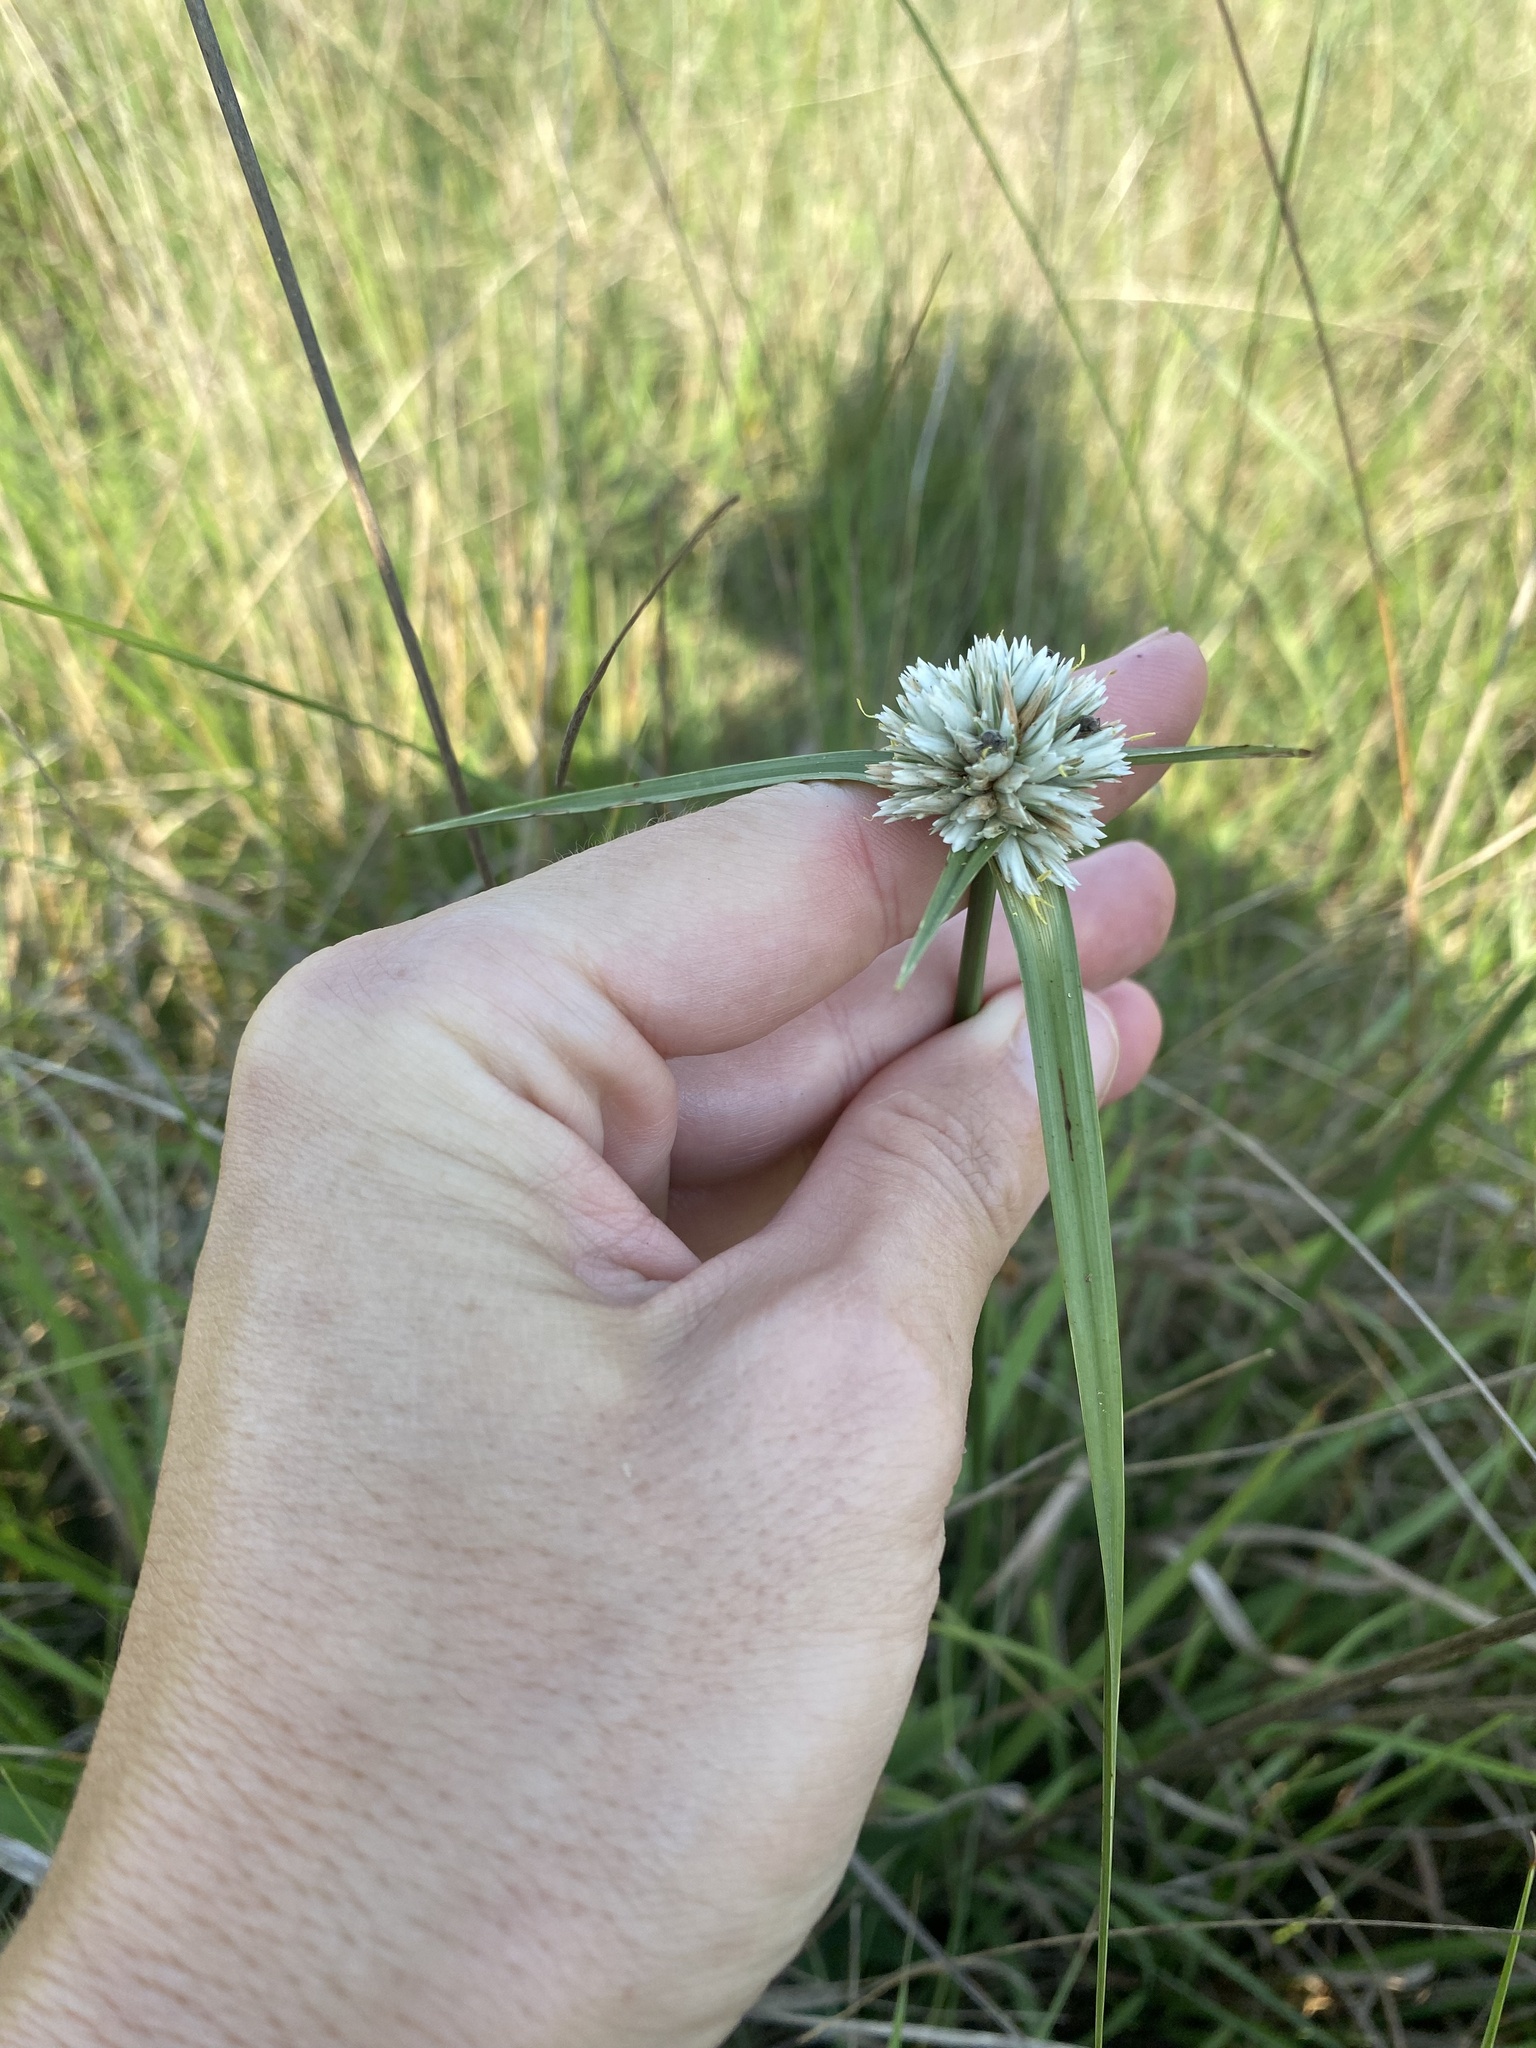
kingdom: Plantae
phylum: Tracheophyta
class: Liliopsida
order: Poales
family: Cyperaceae
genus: Cyperus
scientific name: Cyperus niveus
